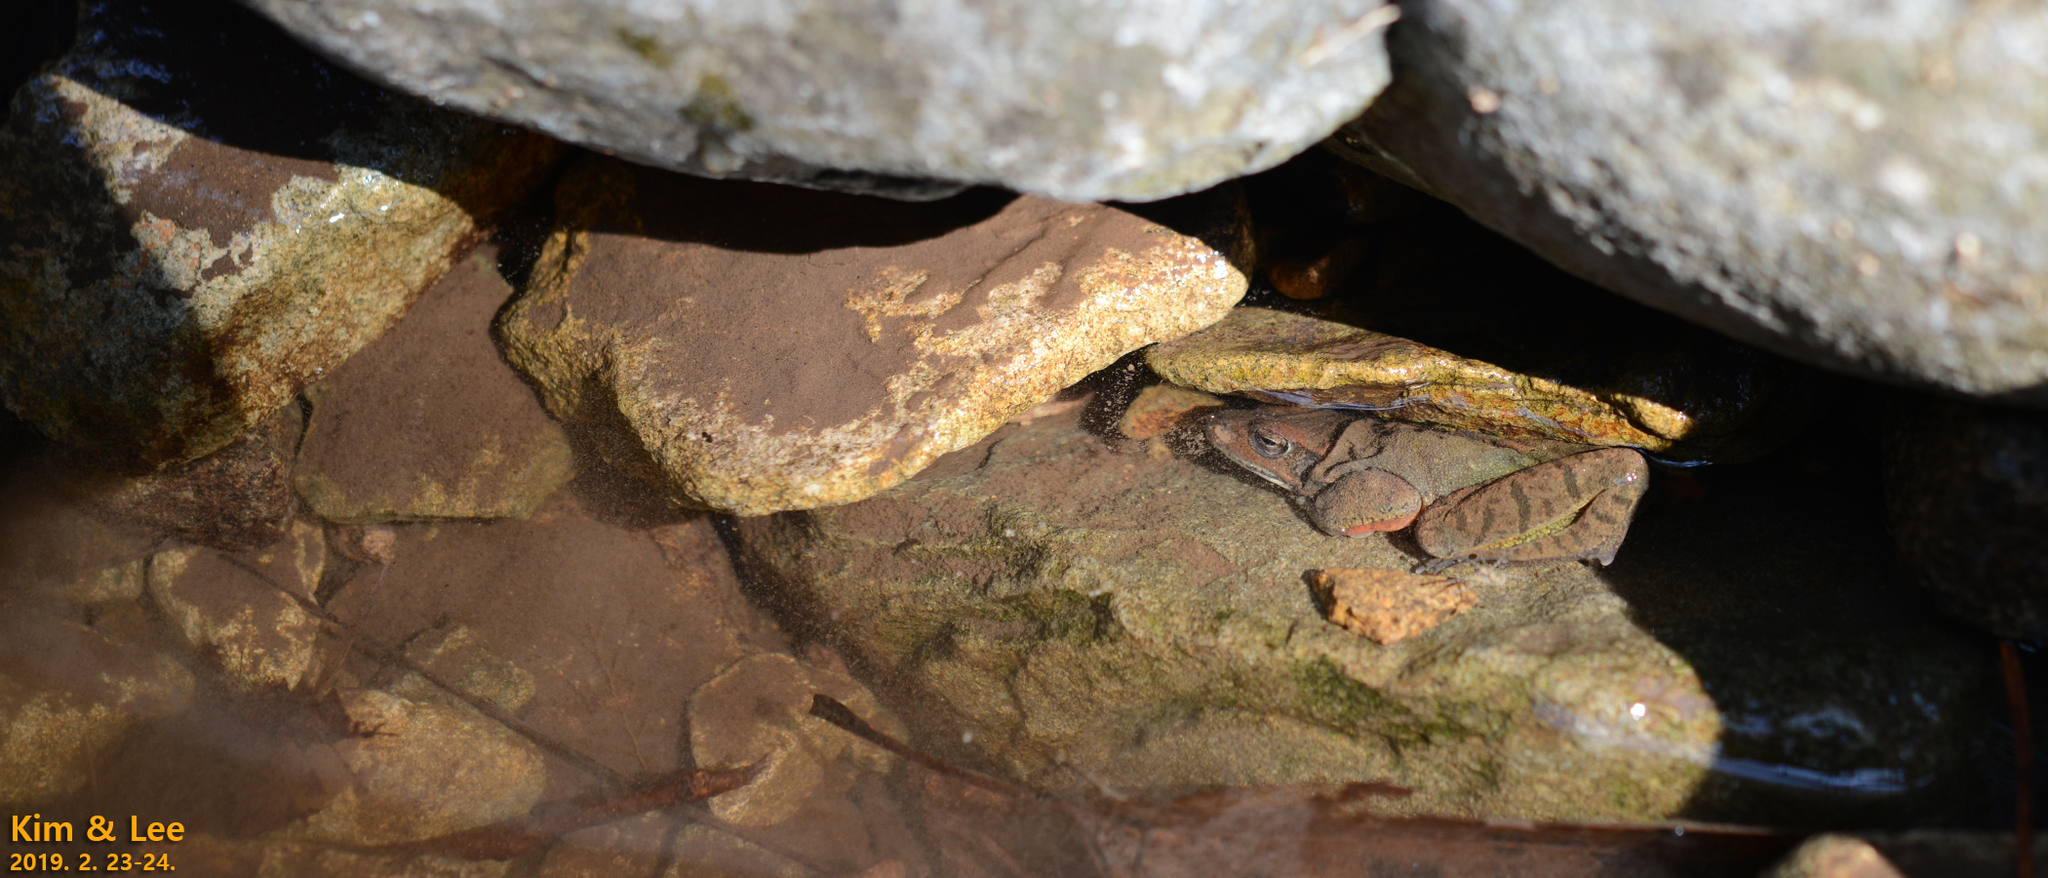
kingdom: Animalia
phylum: Chordata
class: Amphibia
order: Anura
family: Ranidae
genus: Rana
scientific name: Rana uenoi
